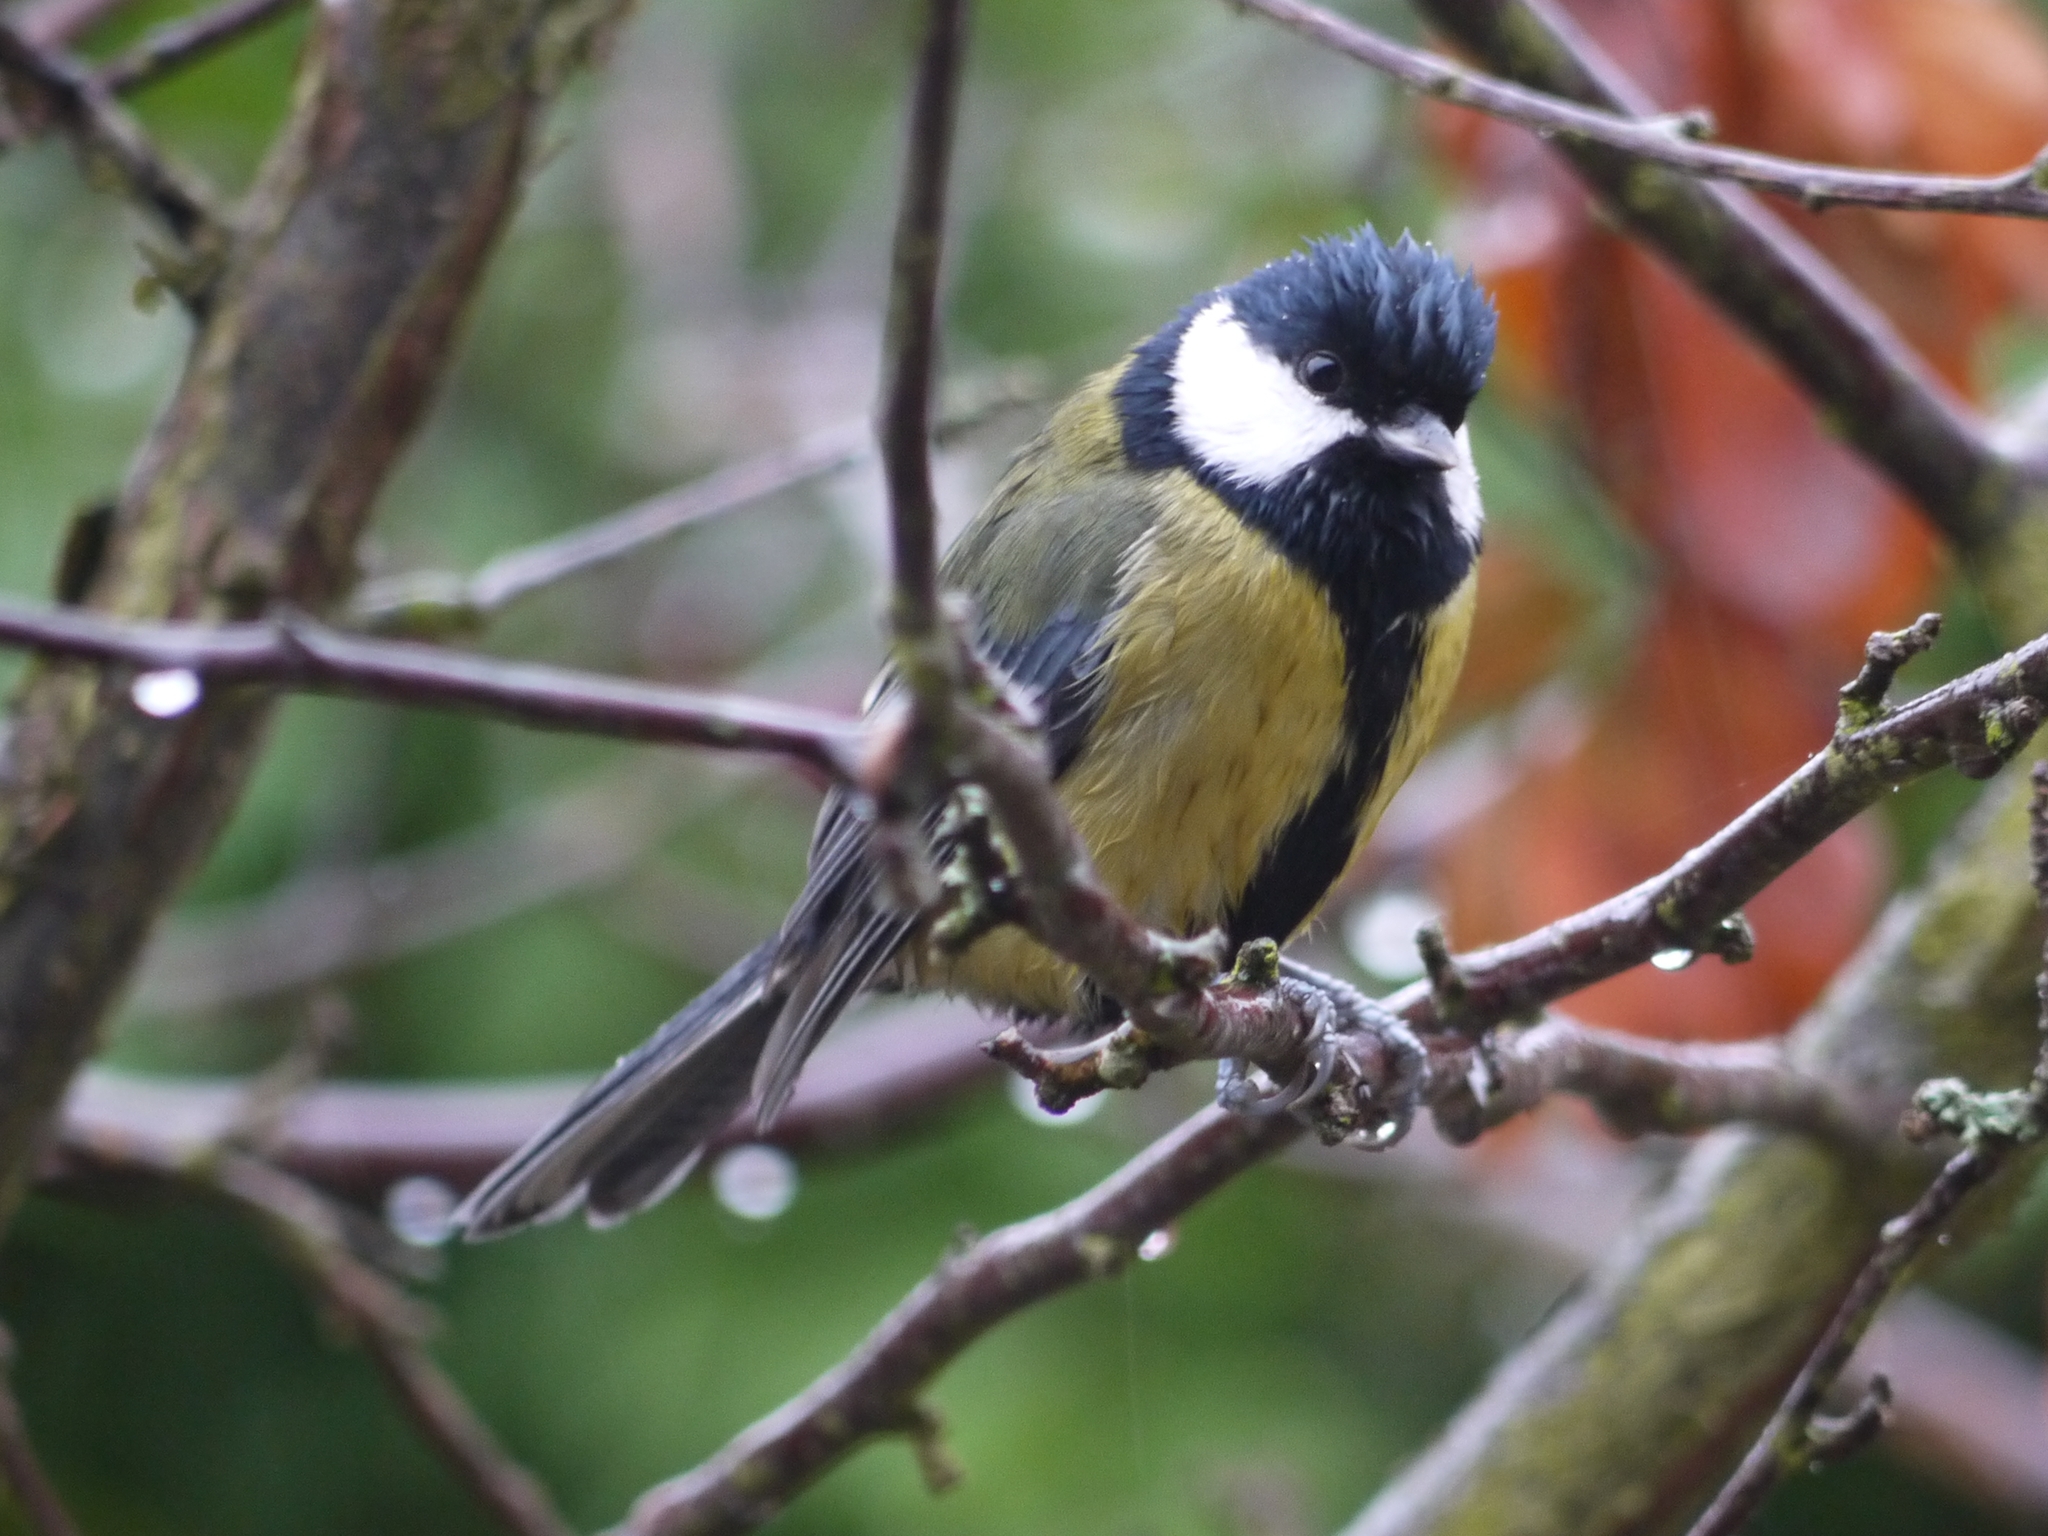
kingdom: Animalia
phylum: Chordata
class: Aves
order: Passeriformes
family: Paridae
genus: Parus
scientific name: Parus major
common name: Great tit
